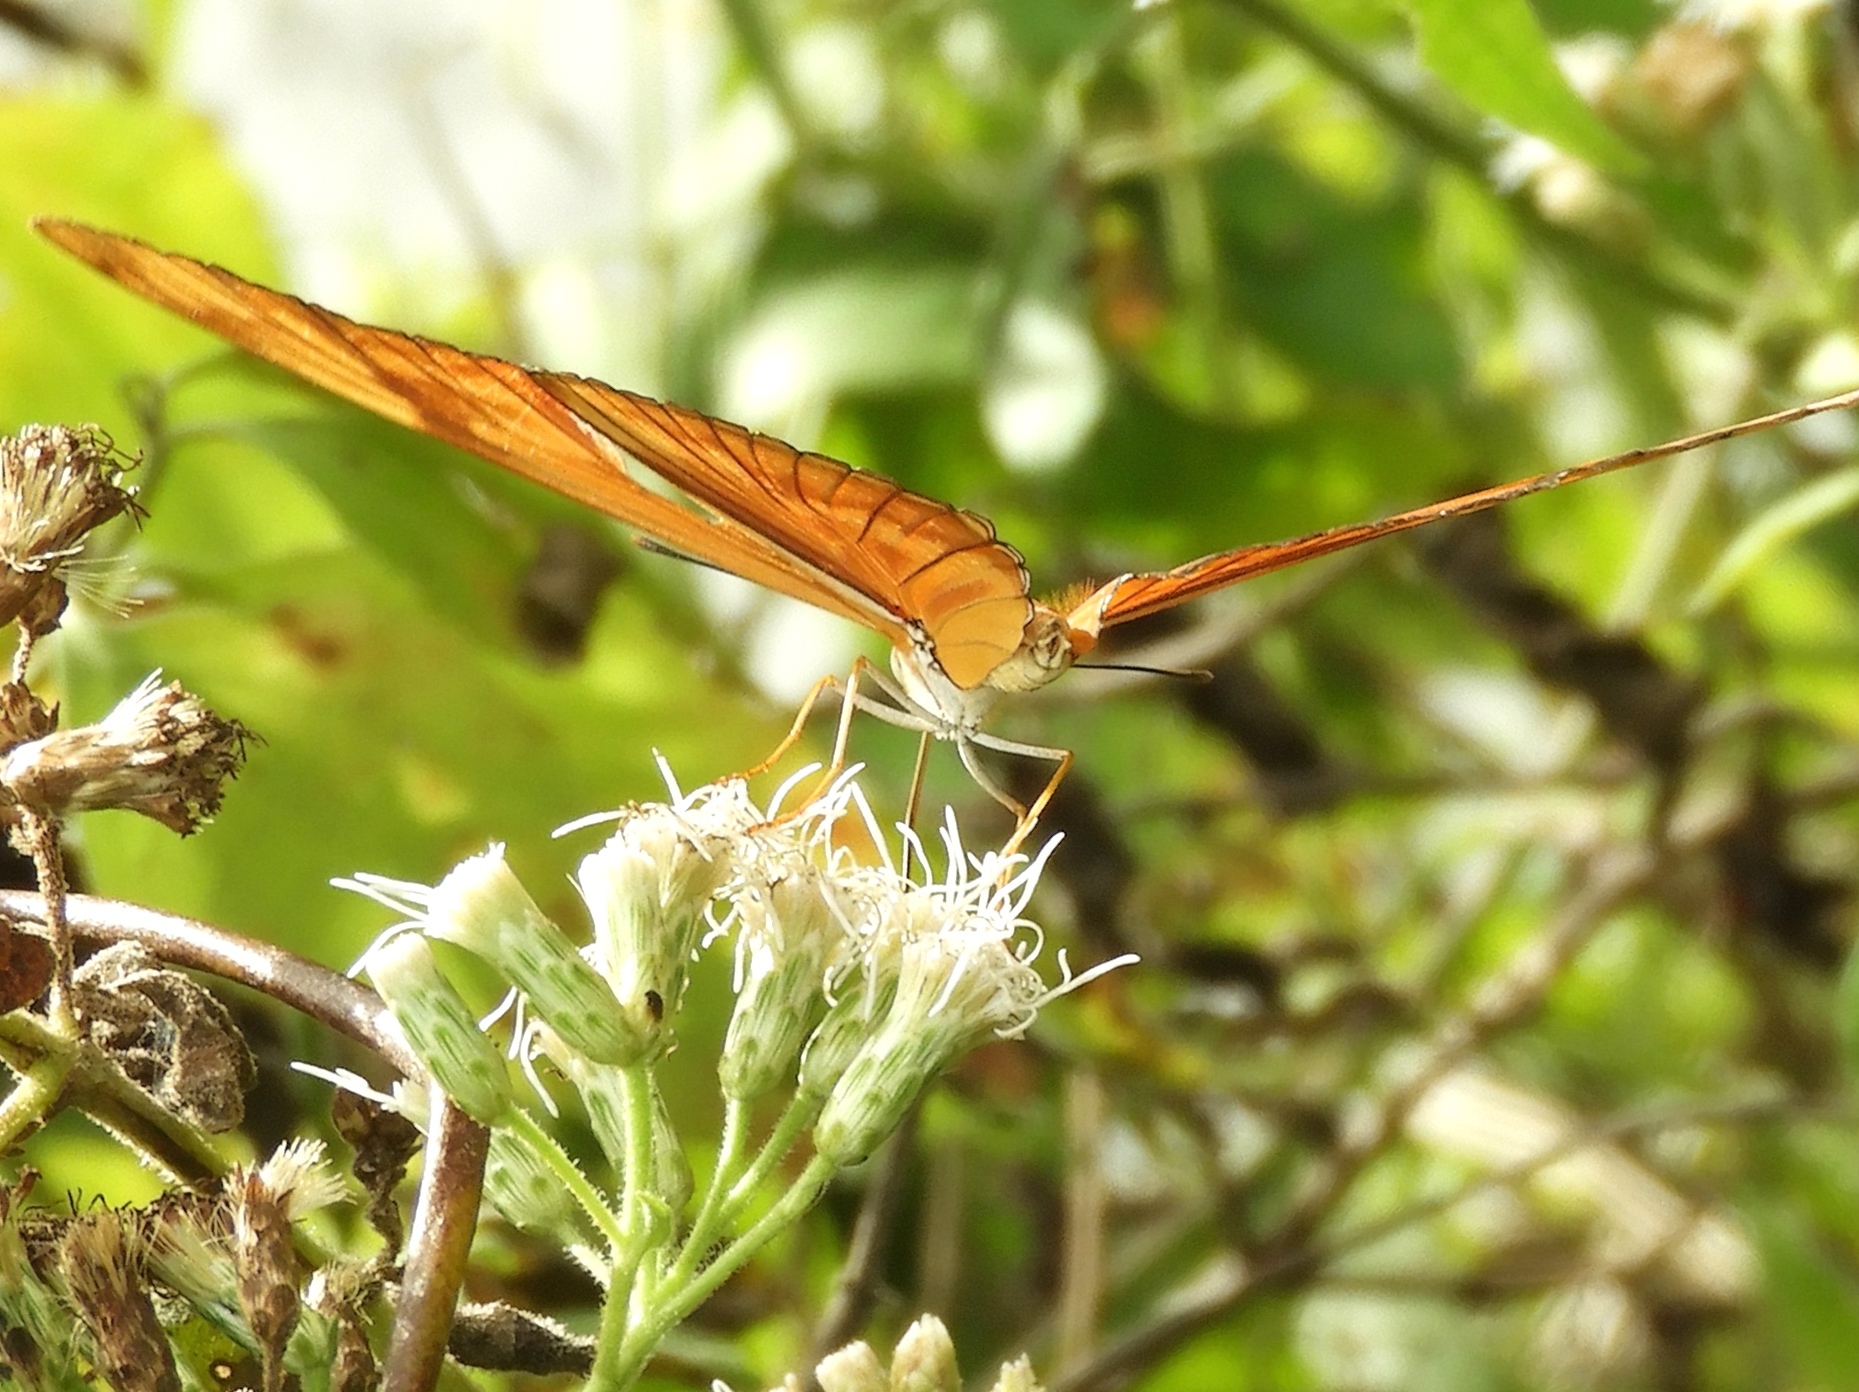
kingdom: Animalia
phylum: Arthropoda
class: Insecta
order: Lepidoptera
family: Nymphalidae
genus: Dryas
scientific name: Dryas iulia
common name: Flambeau
